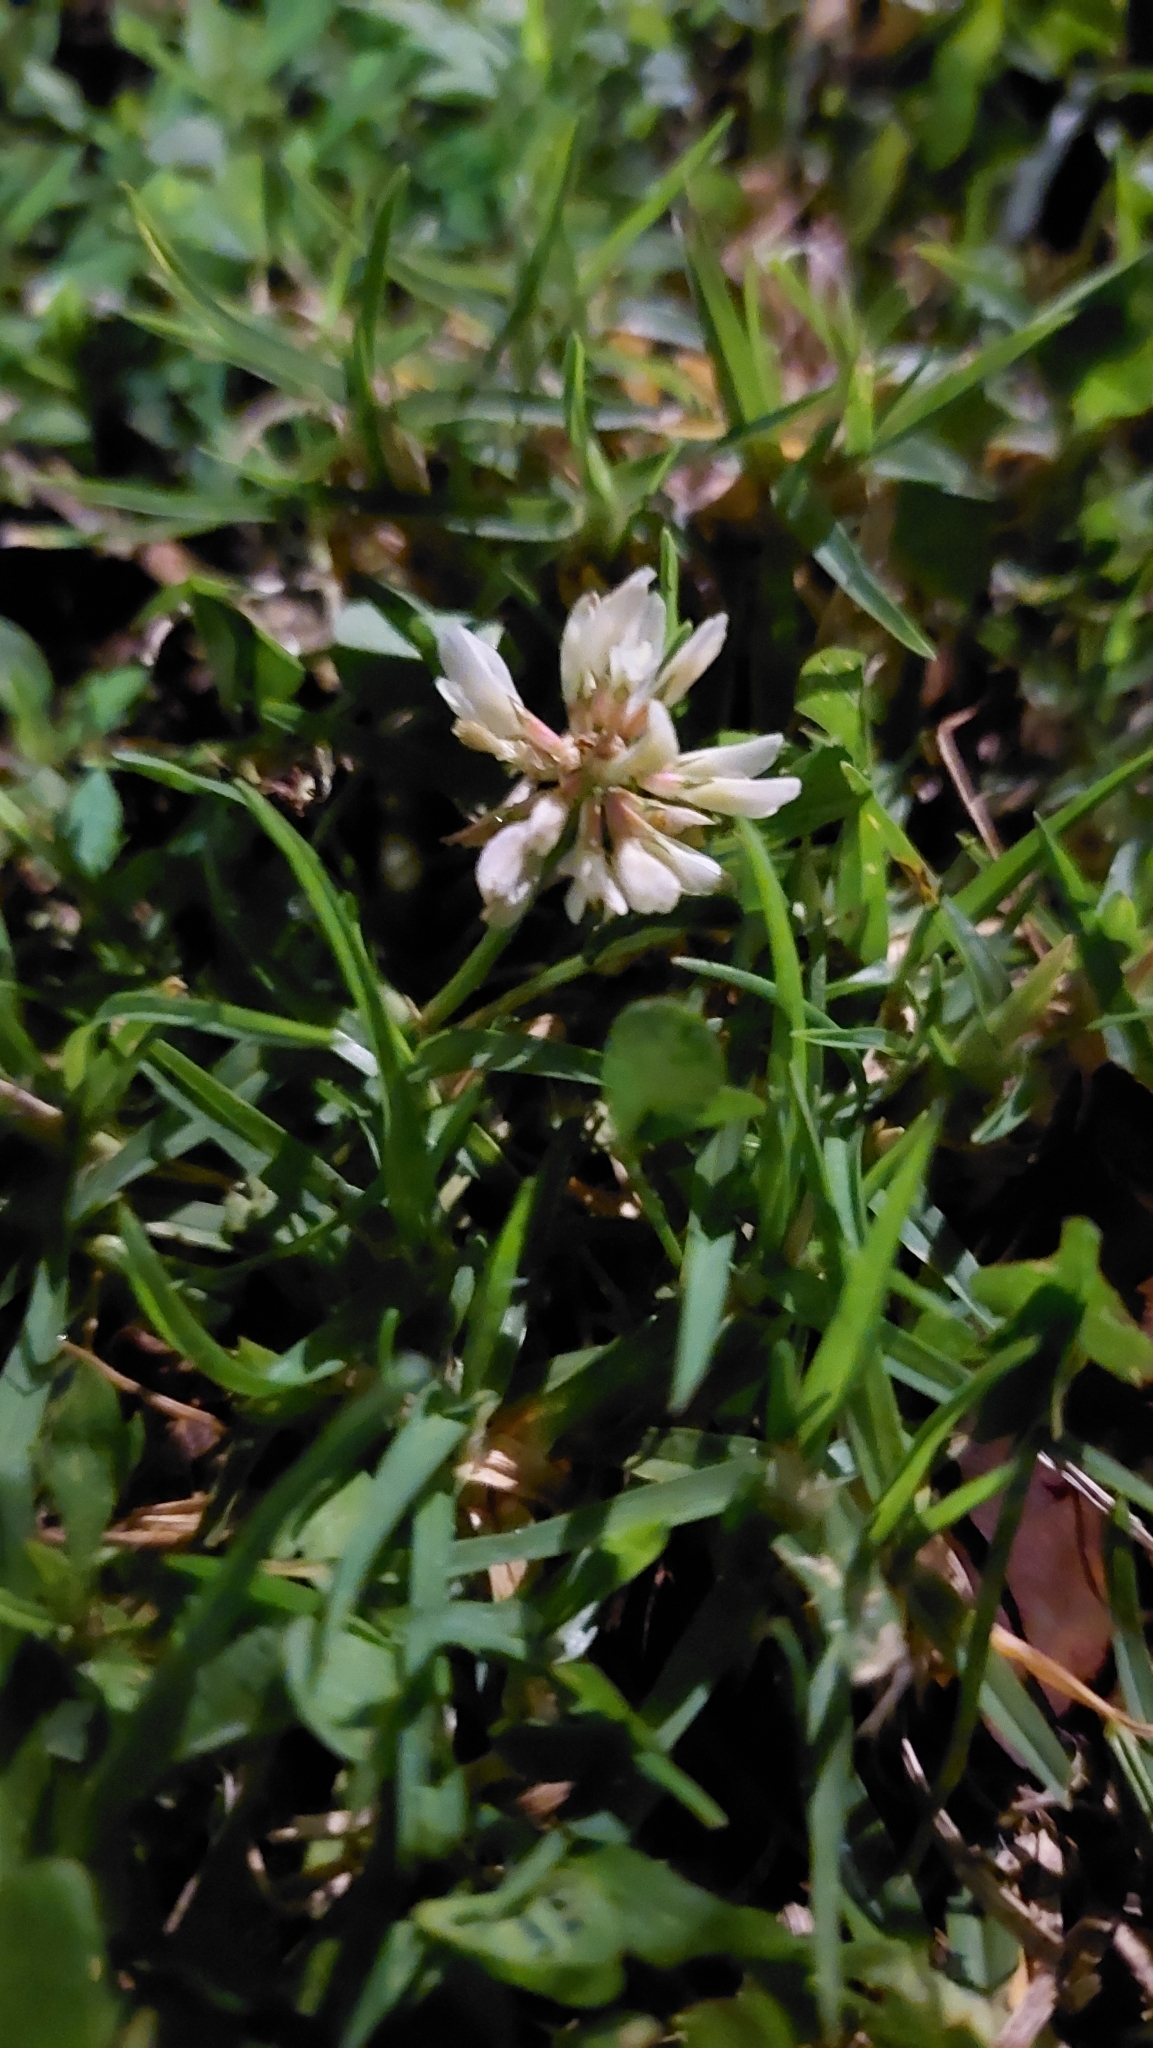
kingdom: Plantae
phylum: Tracheophyta
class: Magnoliopsida
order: Fabales
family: Fabaceae
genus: Trifolium
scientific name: Trifolium repens
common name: White clover
